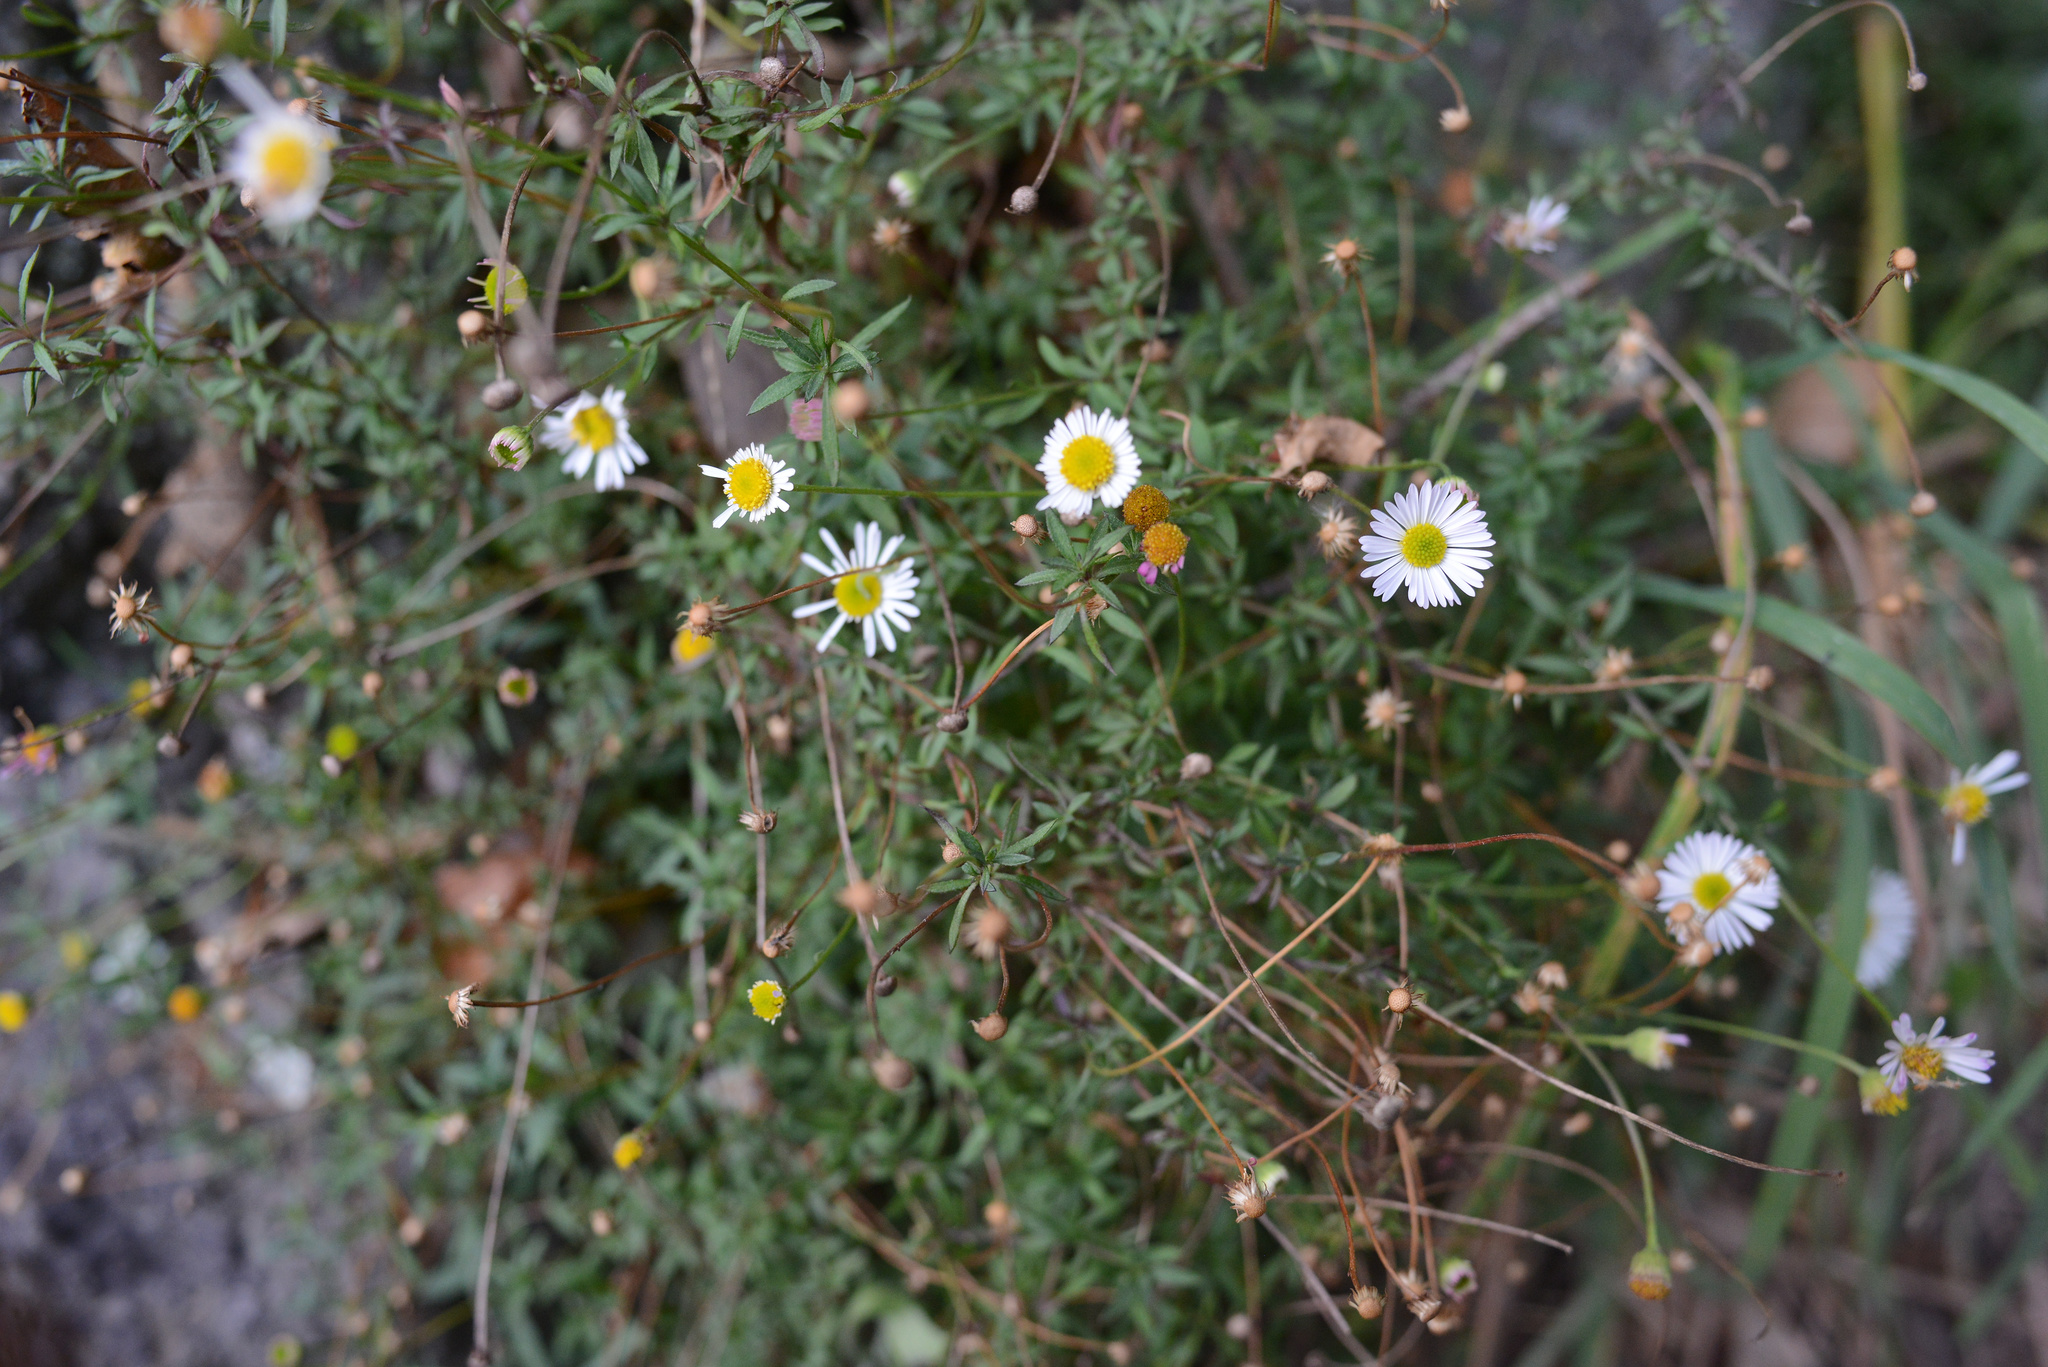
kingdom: Plantae
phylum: Tracheophyta
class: Magnoliopsida
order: Asterales
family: Asteraceae
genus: Erigeron
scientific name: Erigeron karvinskianus
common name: Mexican fleabane
